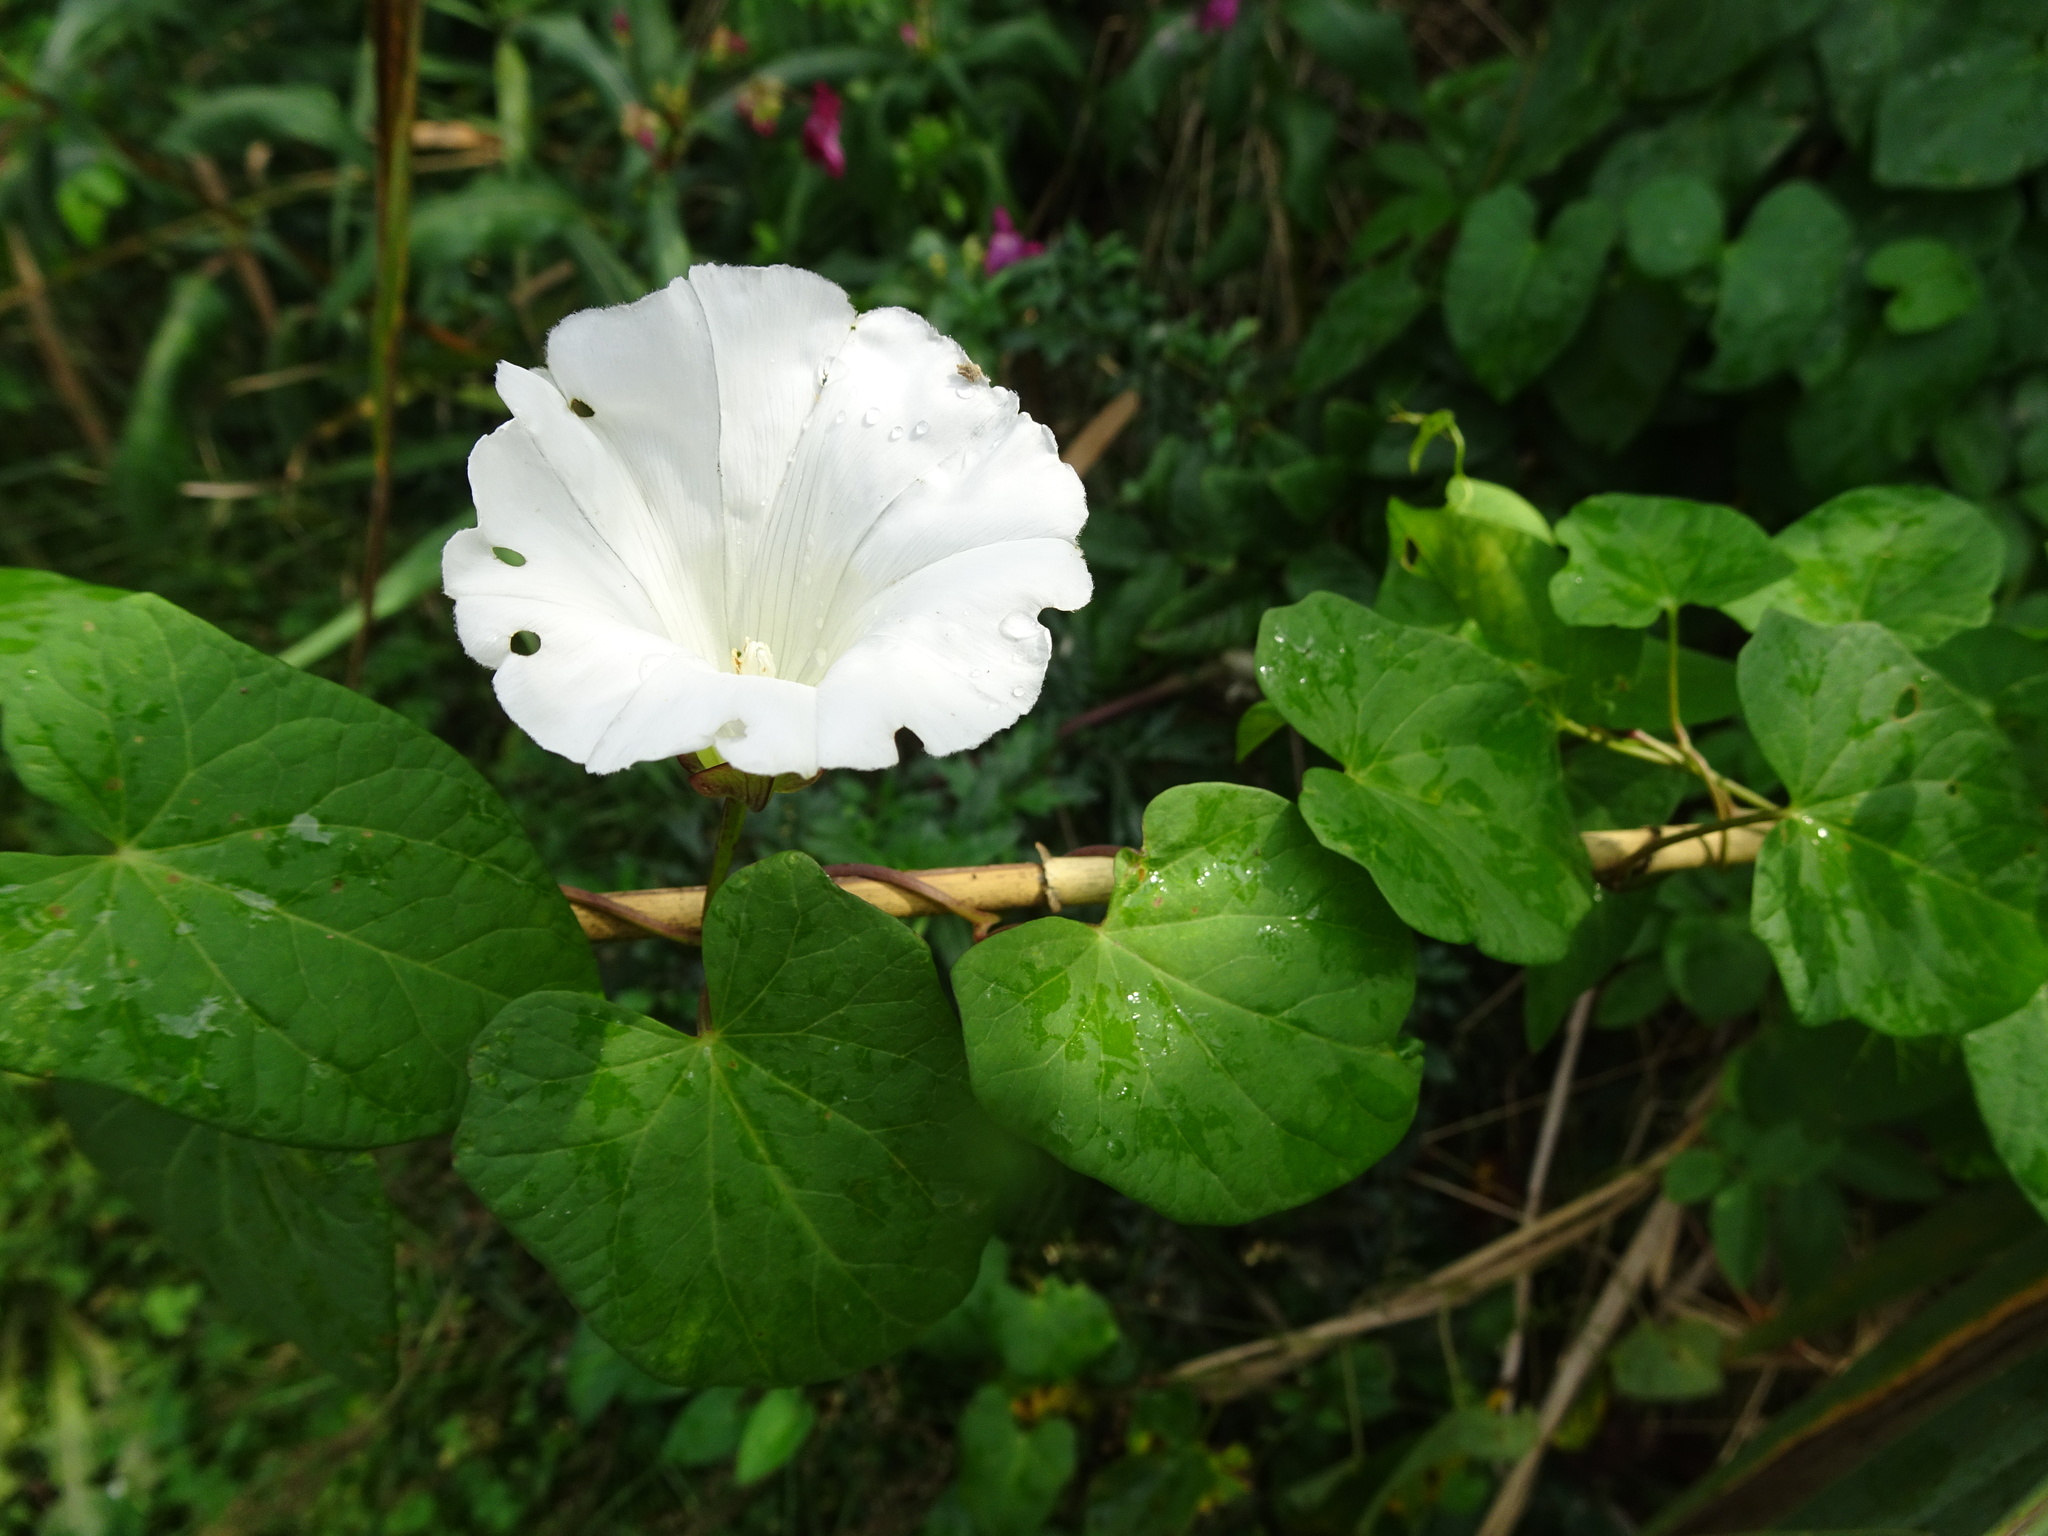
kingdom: Plantae
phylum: Tracheophyta
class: Magnoliopsida
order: Solanales
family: Convolvulaceae
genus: Calystegia
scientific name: Calystegia sepium
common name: Hedge bindweed
